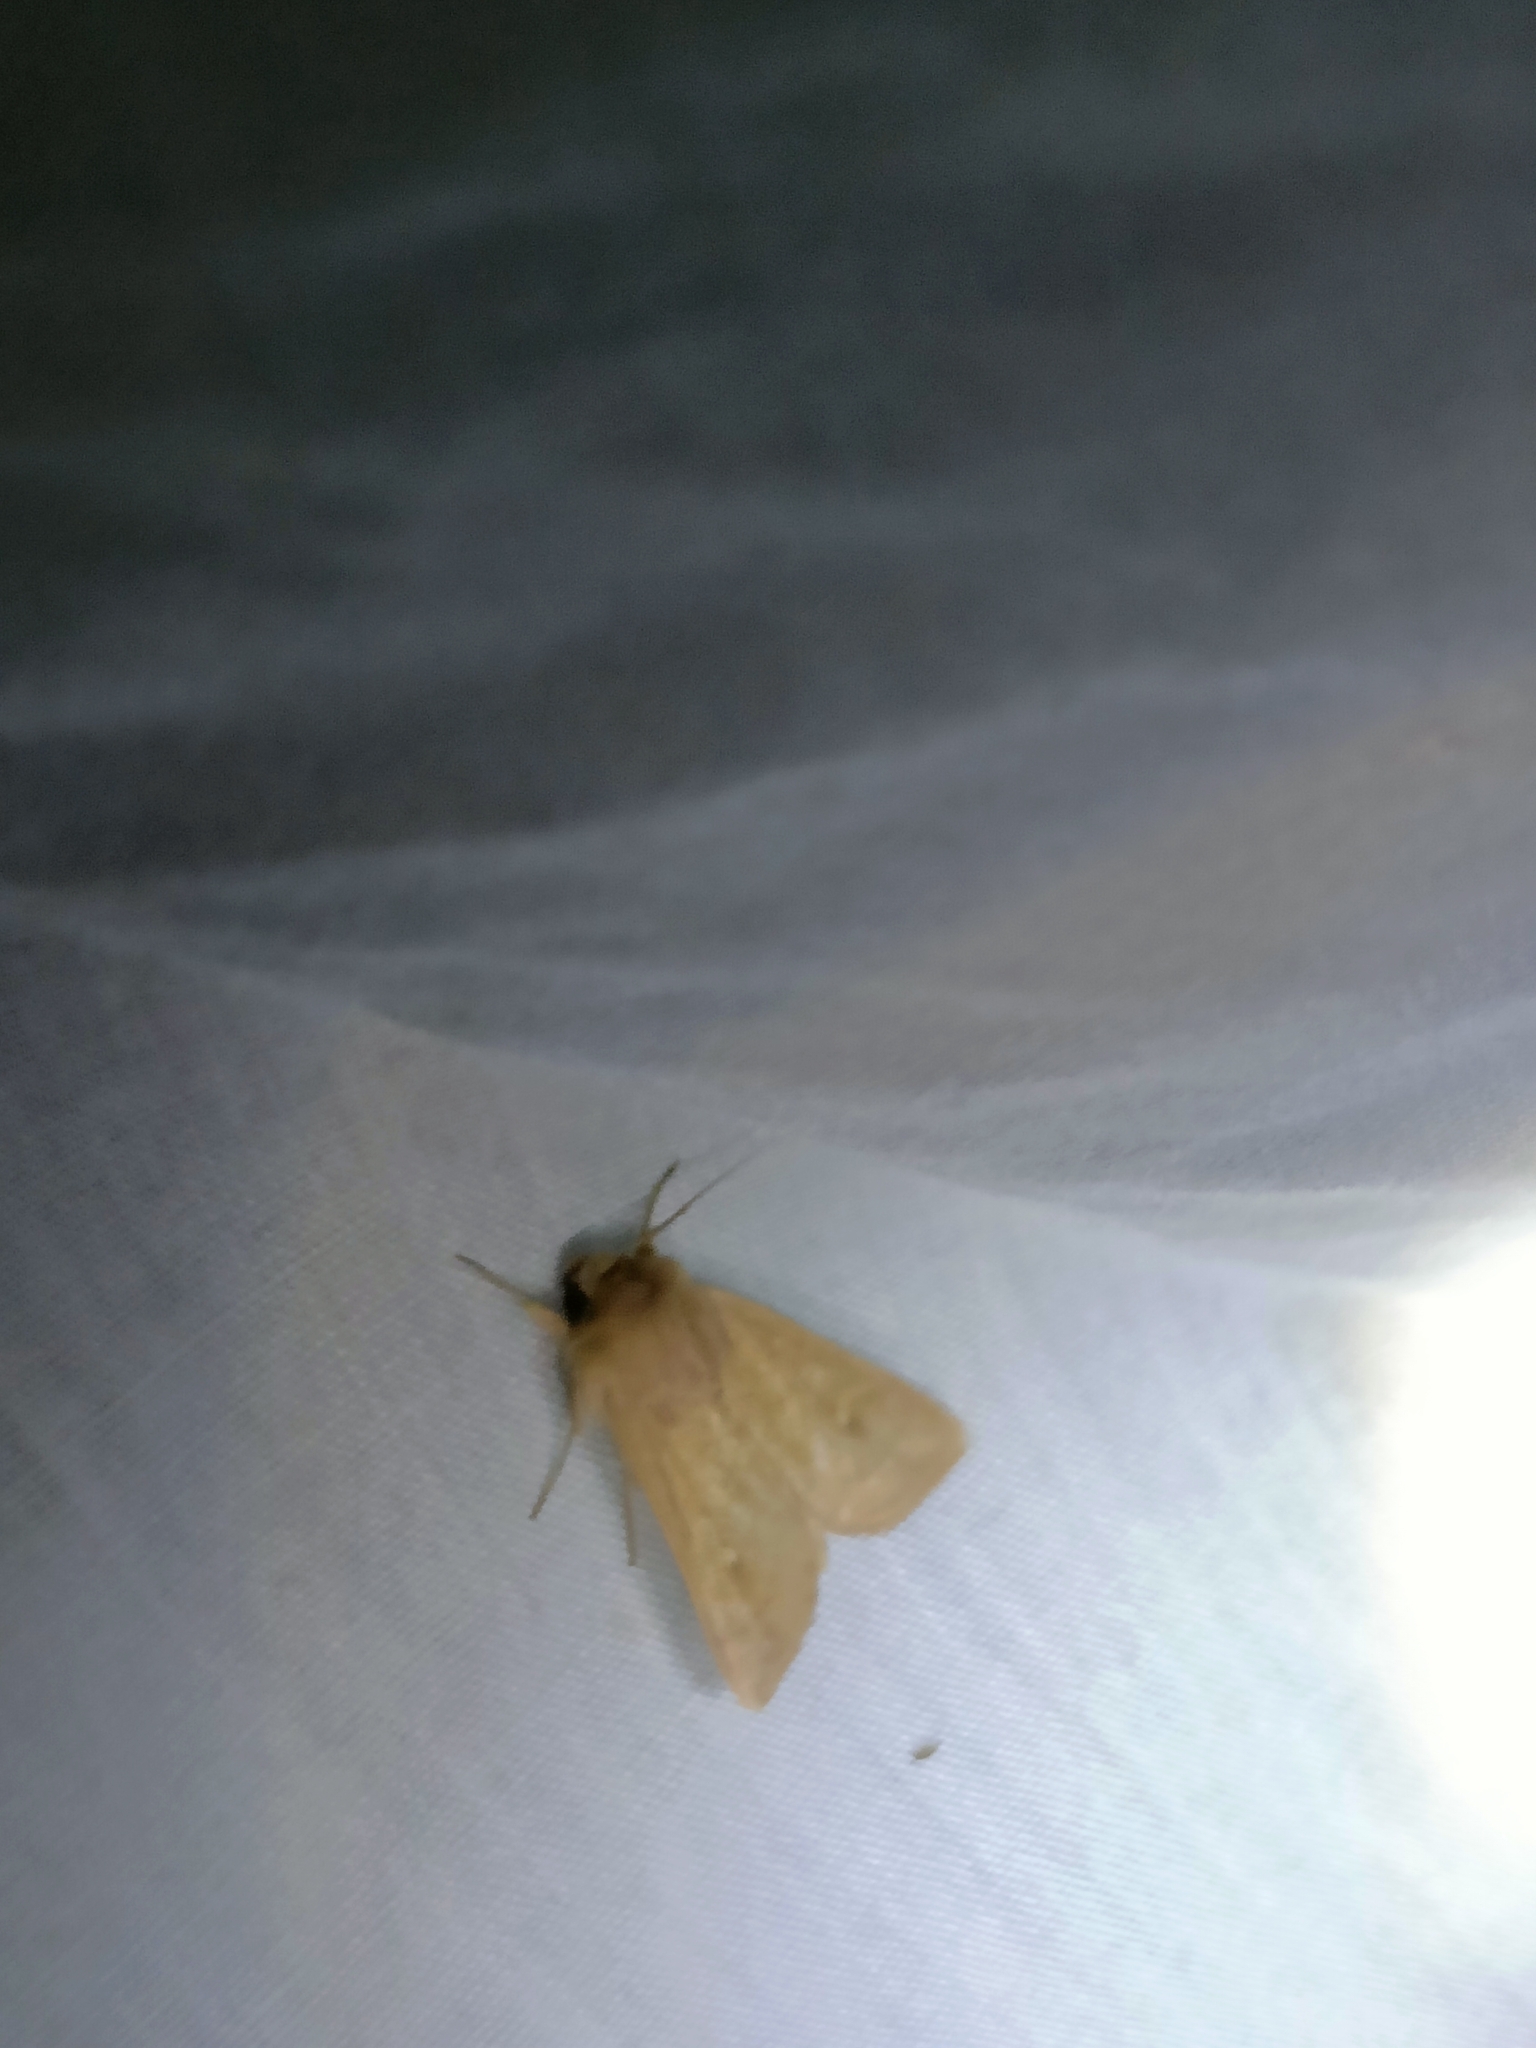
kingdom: Animalia
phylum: Arthropoda
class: Insecta
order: Lepidoptera
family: Noctuidae
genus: Mythimna
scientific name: Mythimna ferrago
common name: Clay
